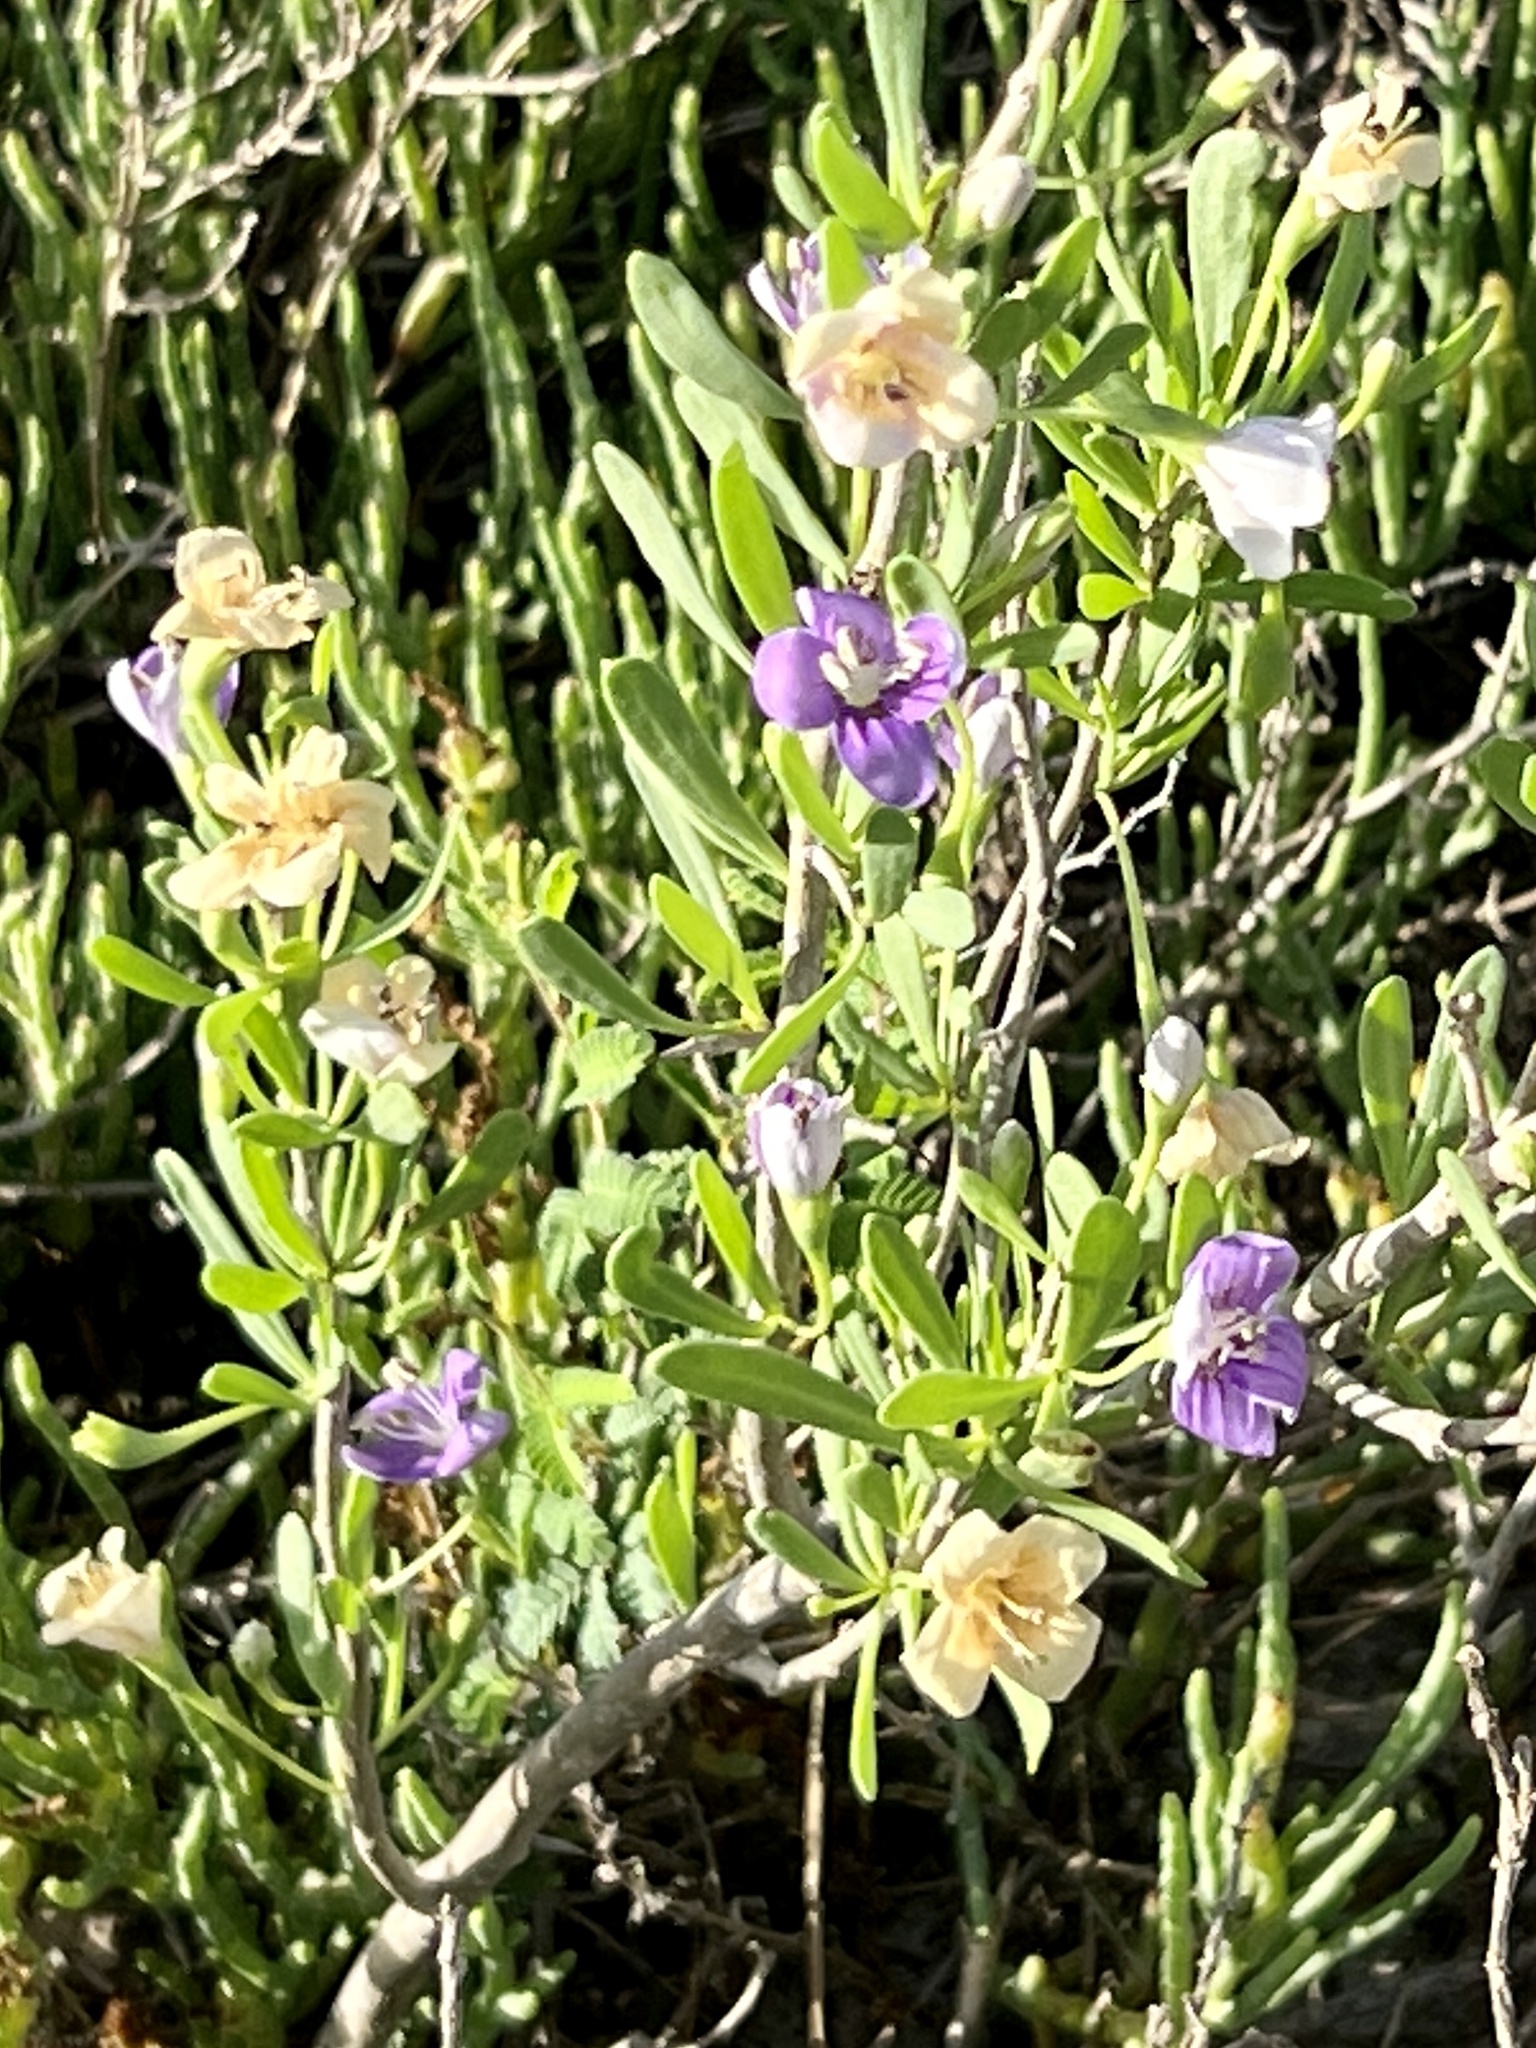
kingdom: Plantae
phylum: Tracheophyta
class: Magnoliopsida
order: Solanales
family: Solanaceae
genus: Lycium
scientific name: Lycium carolinianum
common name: Christmasberry
